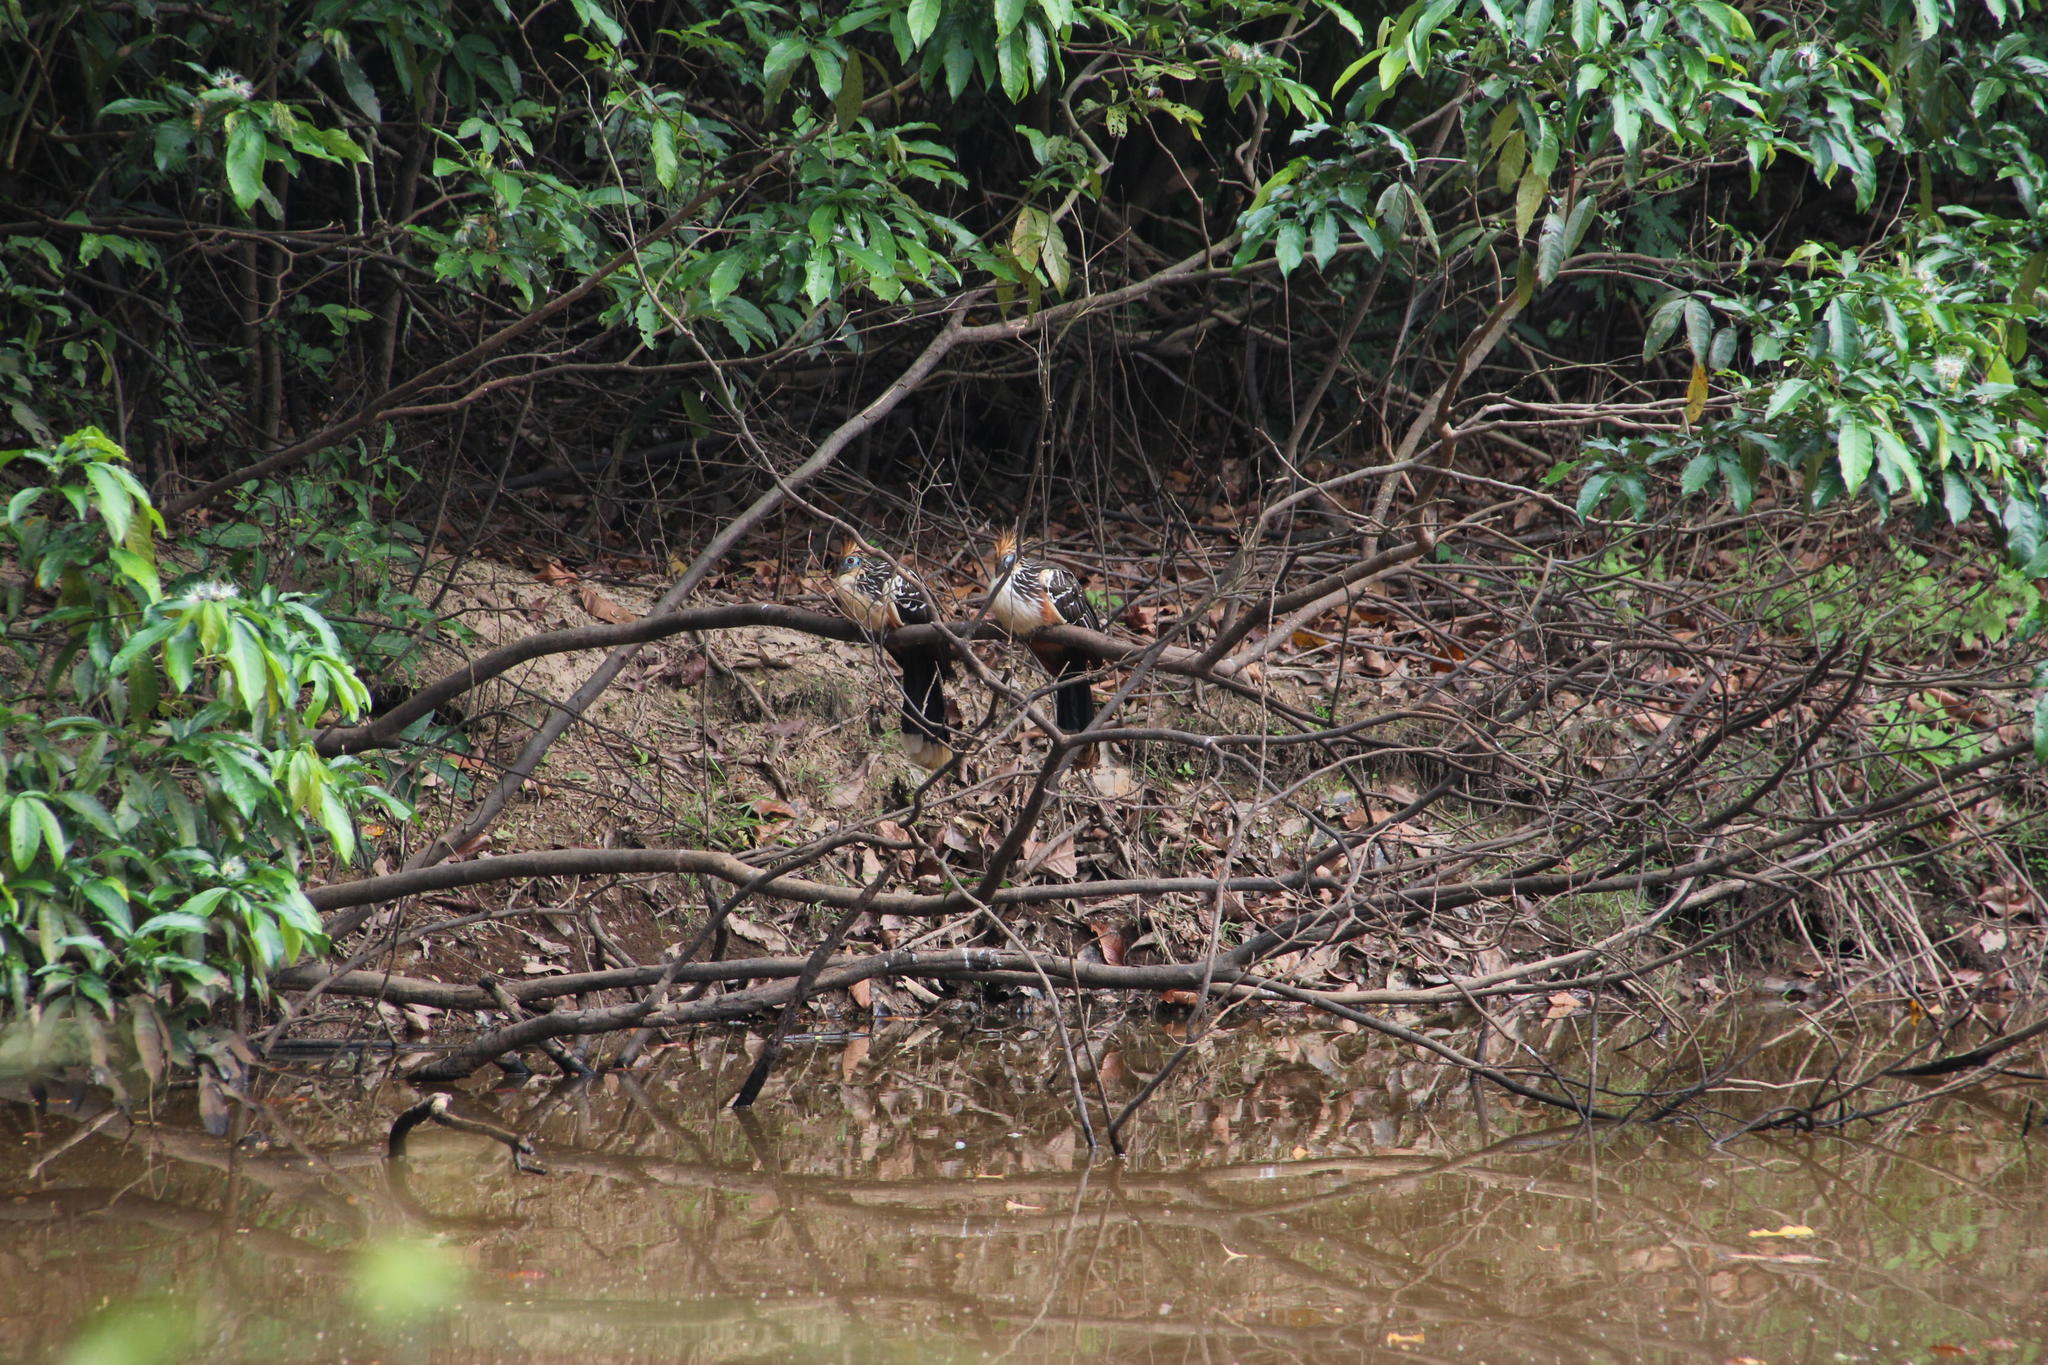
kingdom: Animalia
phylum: Chordata
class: Aves
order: Opisthocomiformes
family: Opisthocomidae
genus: Opisthocomus
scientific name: Opisthocomus hoazin
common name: Hoatzin
